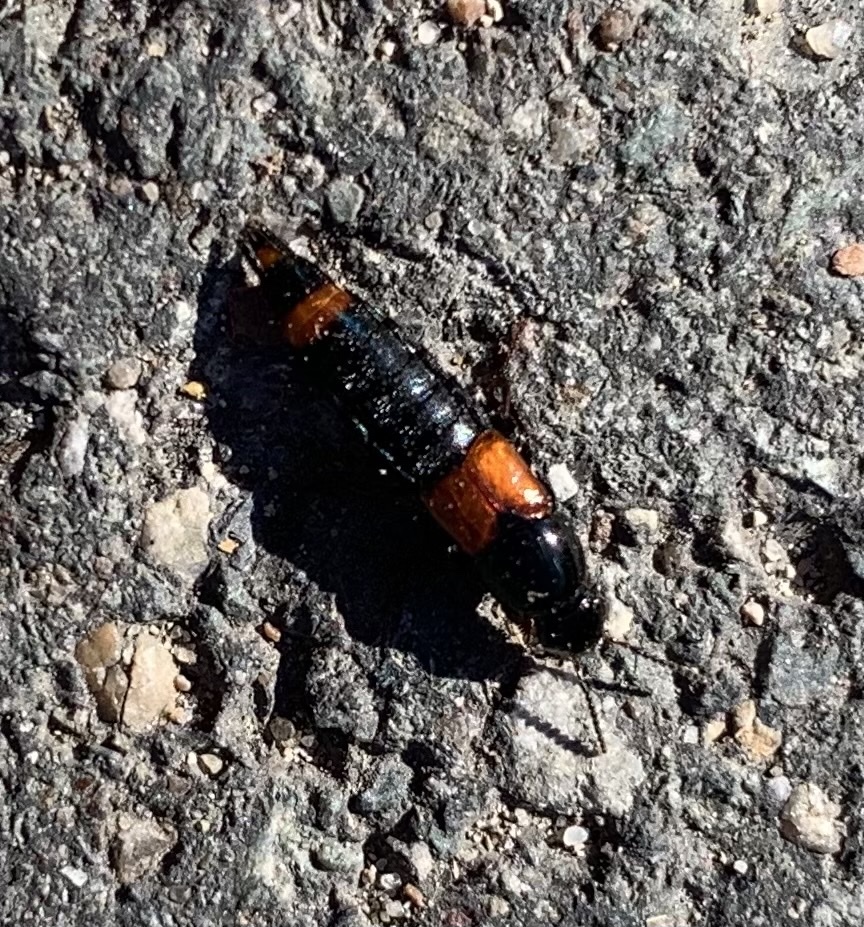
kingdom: Animalia
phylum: Arthropoda
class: Insecta
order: Coleoptera
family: Staphylinidae
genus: Astrapaeus
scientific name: Astrapaeus ulmi
